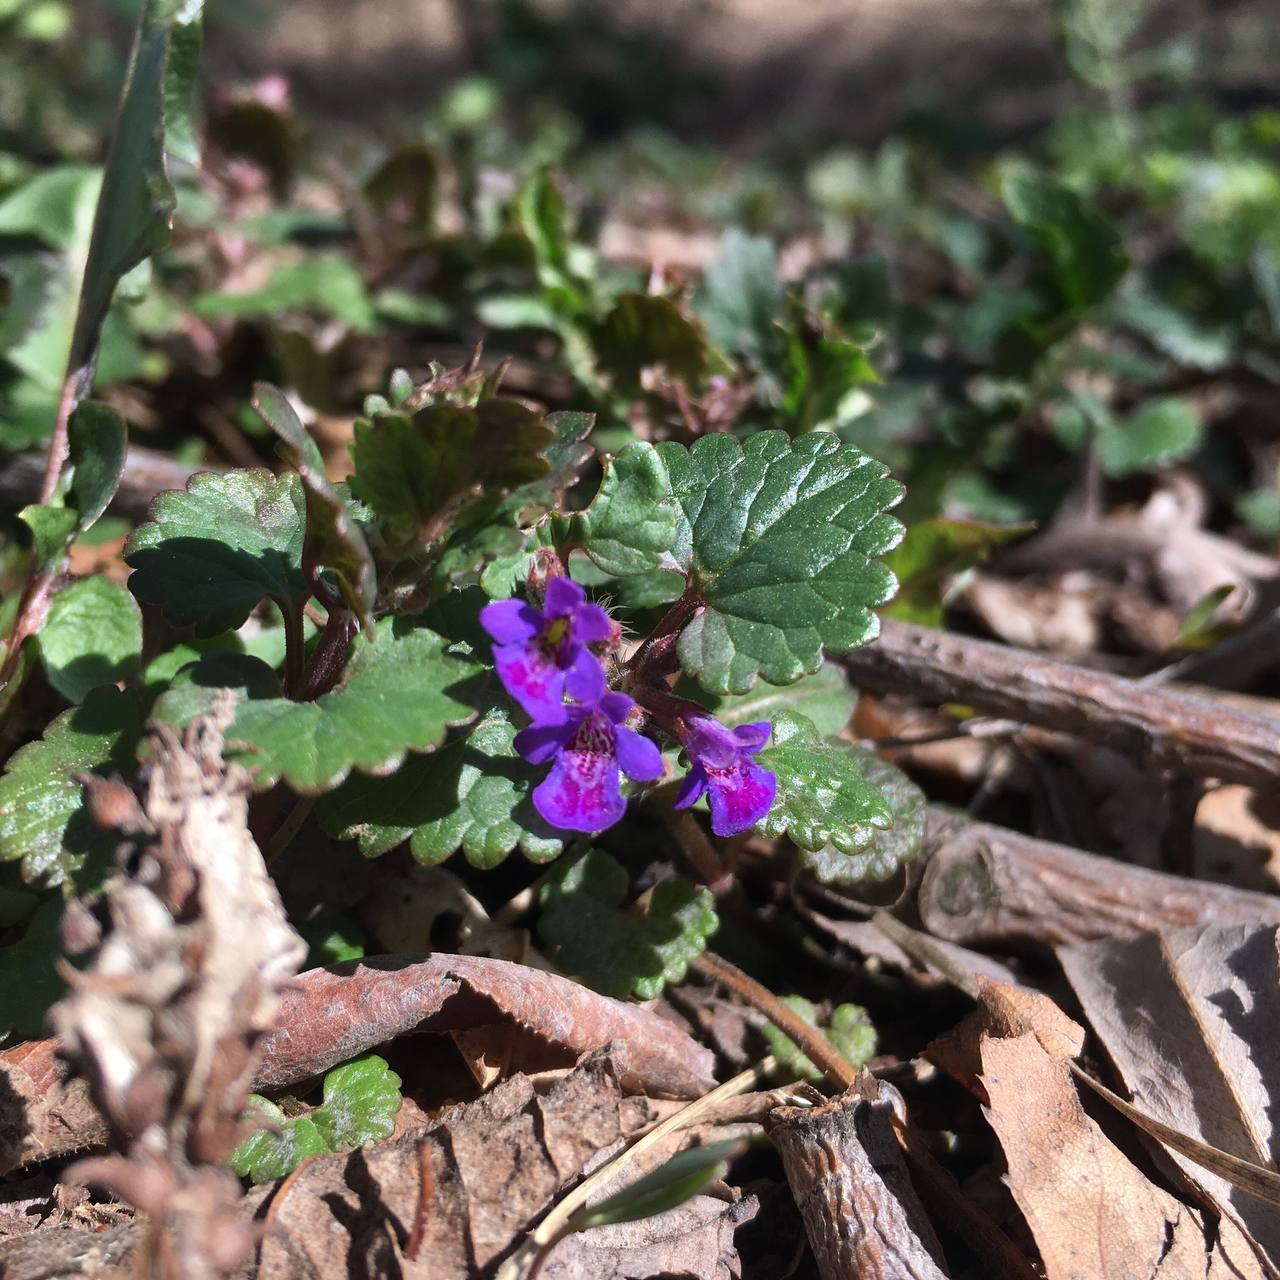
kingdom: Plantae
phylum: Tracheophyta
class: Magnoliopsida
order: Lamiales
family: Lamiaceae
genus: Glechoma
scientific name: Glechoma hederacea
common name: Ground ivy
